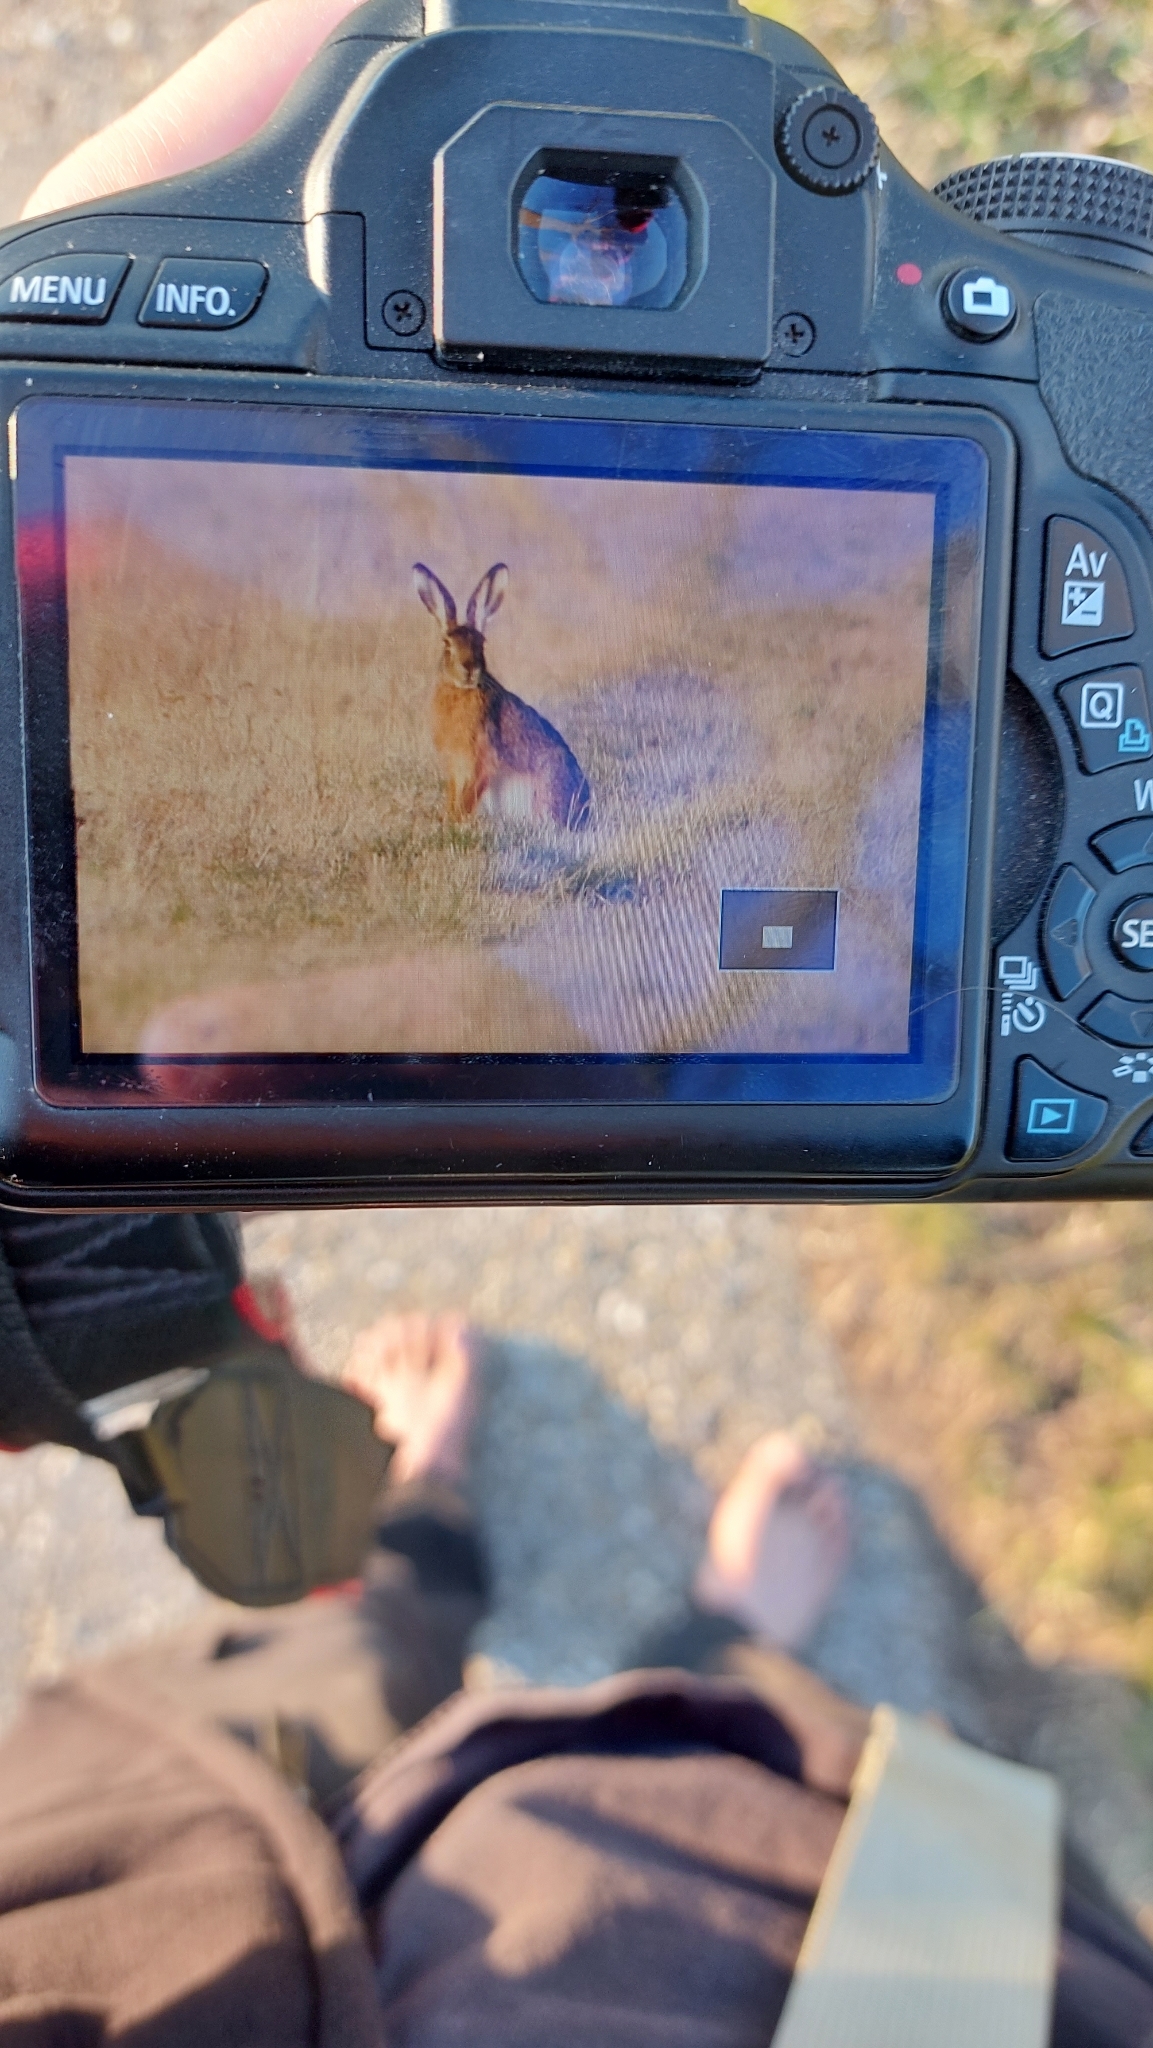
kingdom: Animalia
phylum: Chordata
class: Mammalia
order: Lagomorpha
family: Leporidae
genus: Lepus
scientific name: Lepus europaeus
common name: European hare
